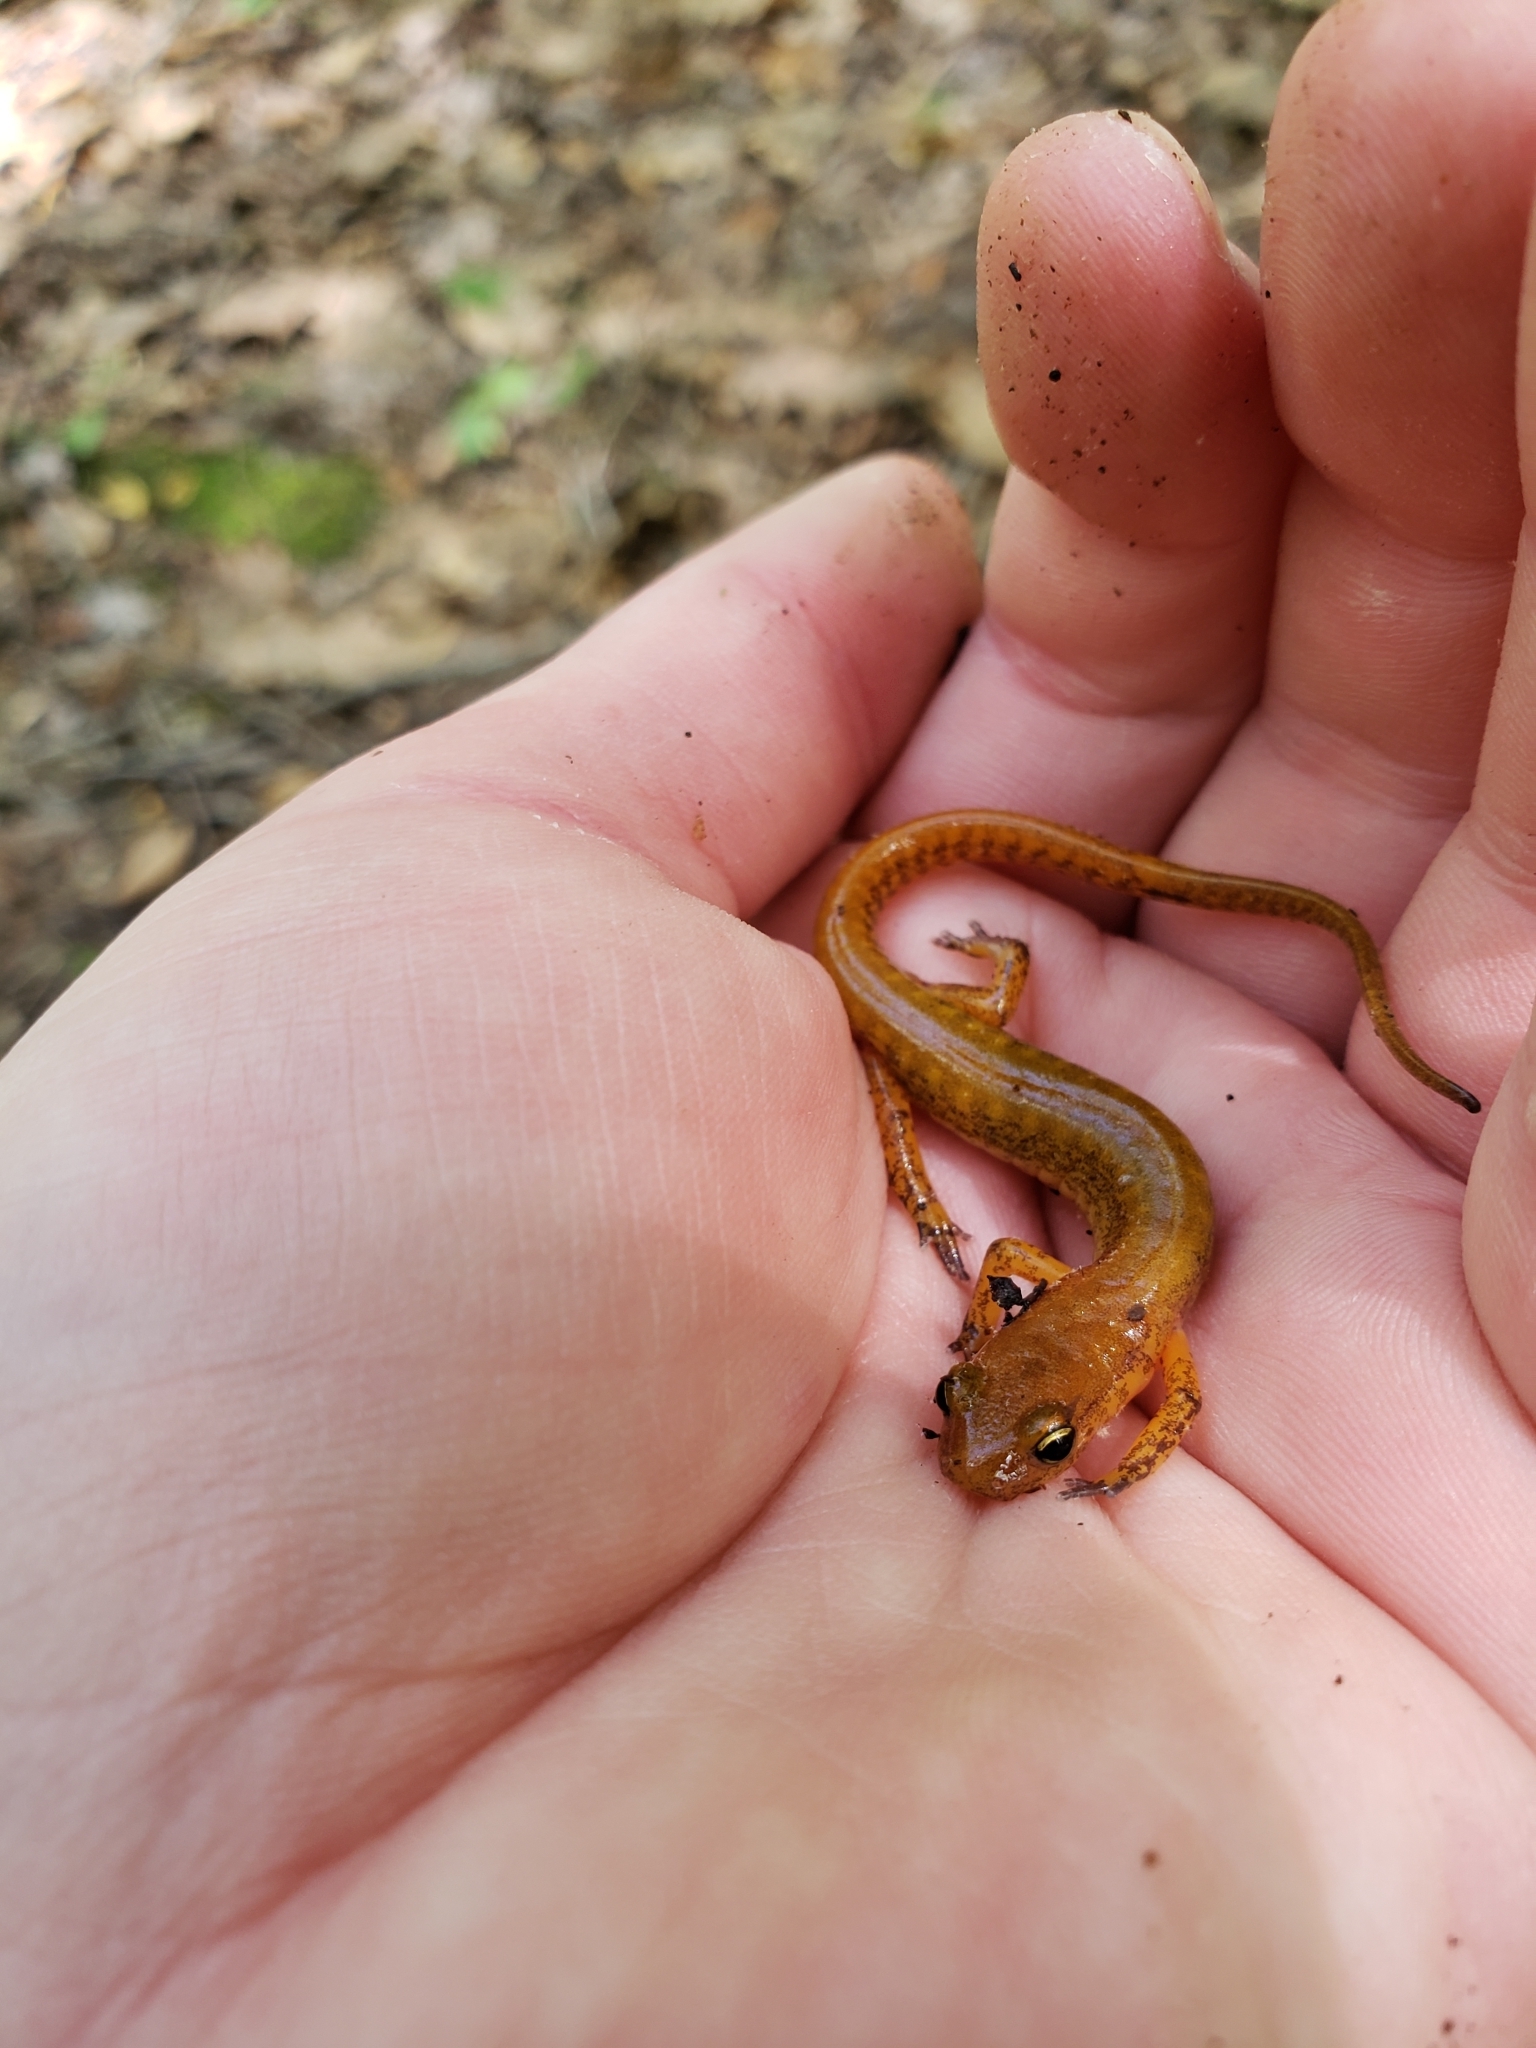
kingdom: Animalia
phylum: Chordata
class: Amphibia
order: Caudata
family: Plethodontidae
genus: Eurycea
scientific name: Eurycea longicauda
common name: Long-tailed salamander
